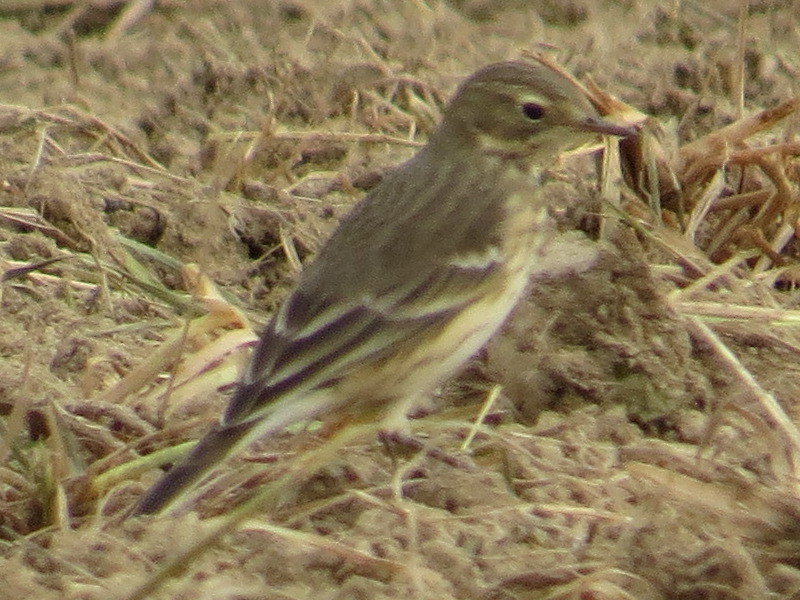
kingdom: Animalia
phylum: Chordata
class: Aves
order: Passeriformes
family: Motacillidae
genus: Anthus
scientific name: Anthus rubescens
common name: Buff-bellied pipit
